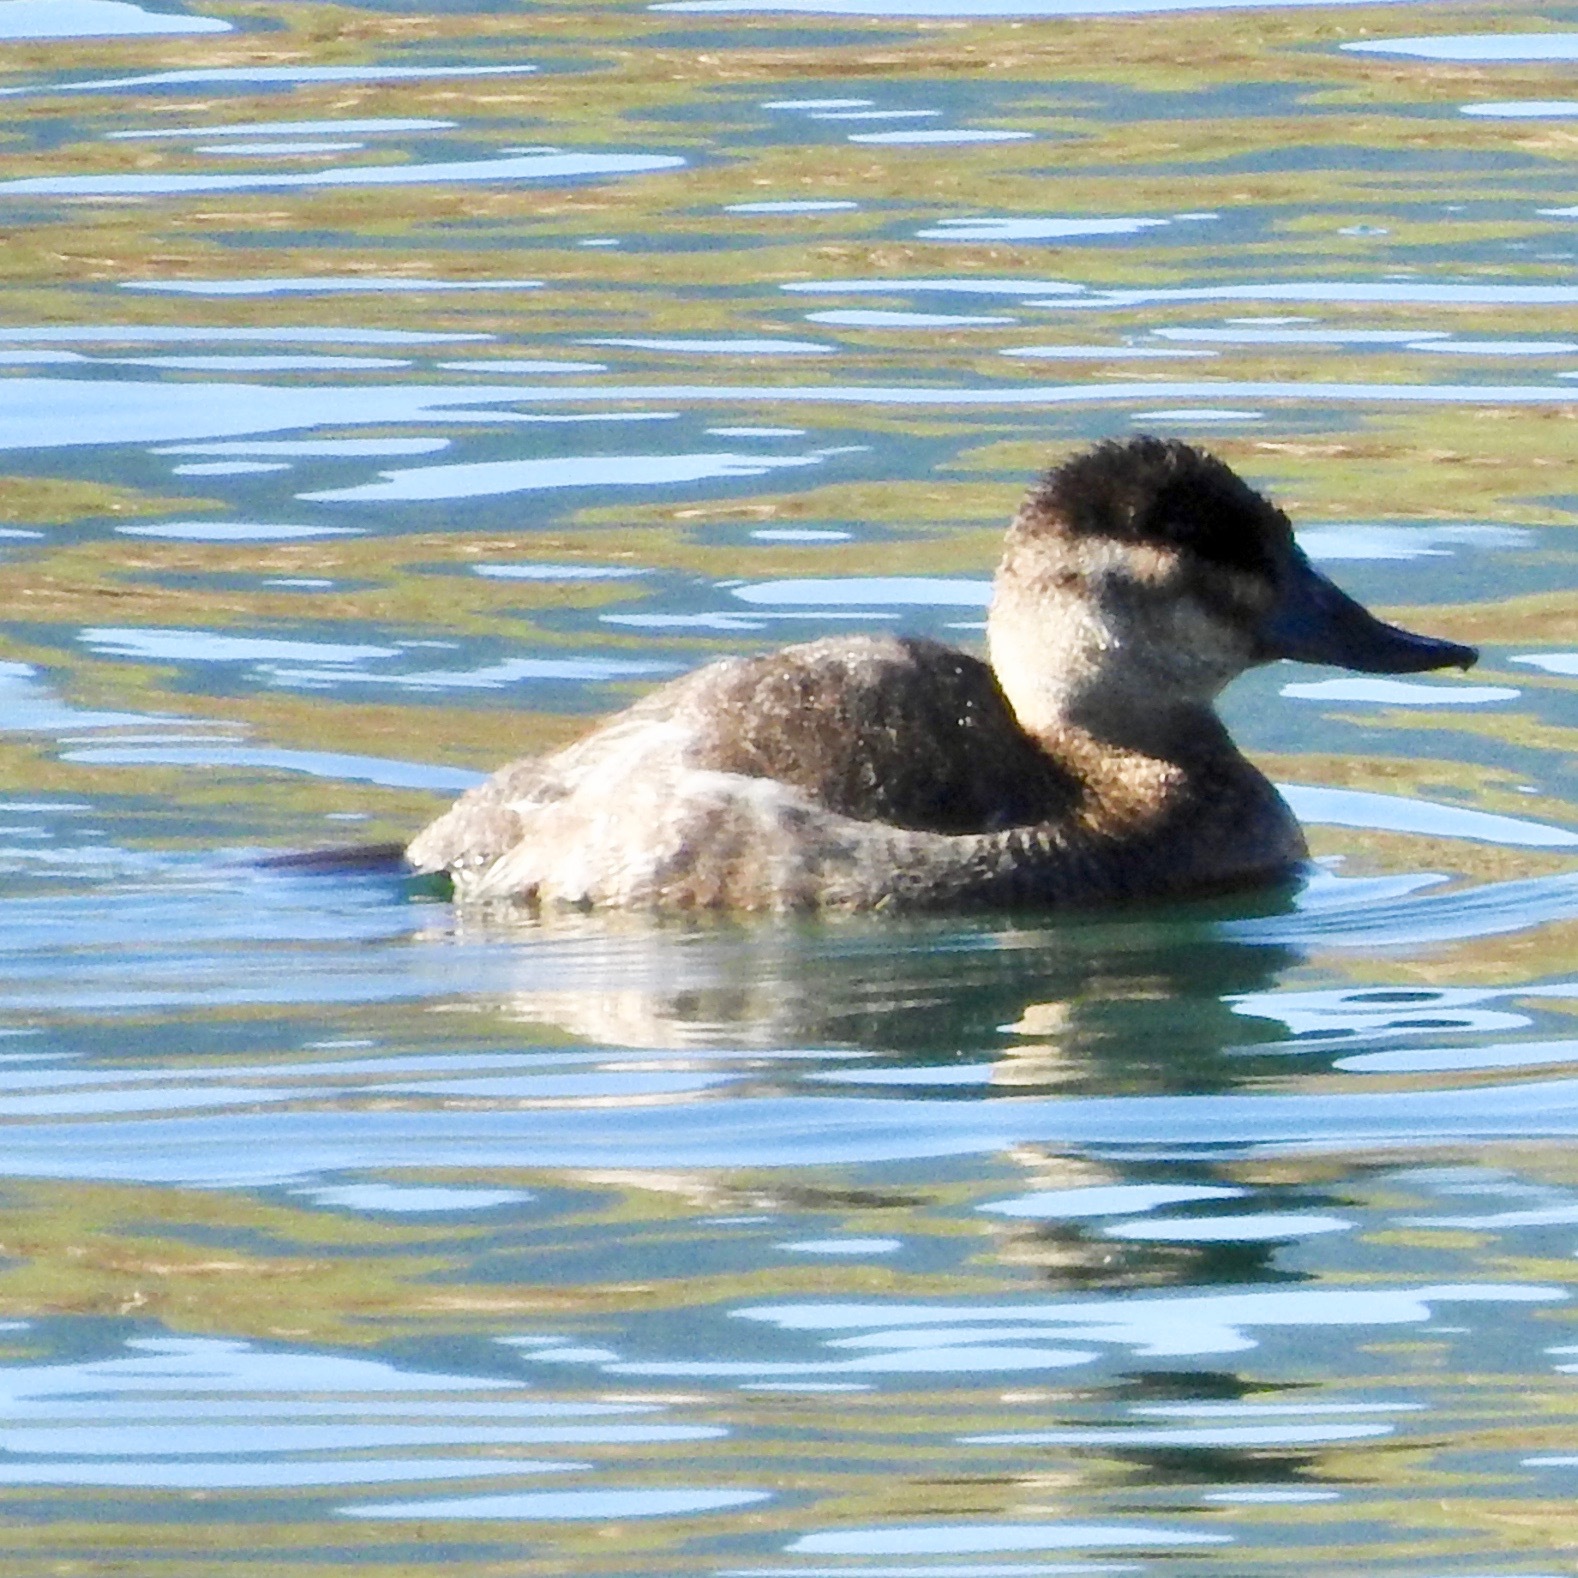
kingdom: Animalia
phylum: Chordata
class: Aves
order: Anseriformes
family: Anatidae
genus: Oxyura
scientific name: Oxyura jamaicensis
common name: Ruddy duck
